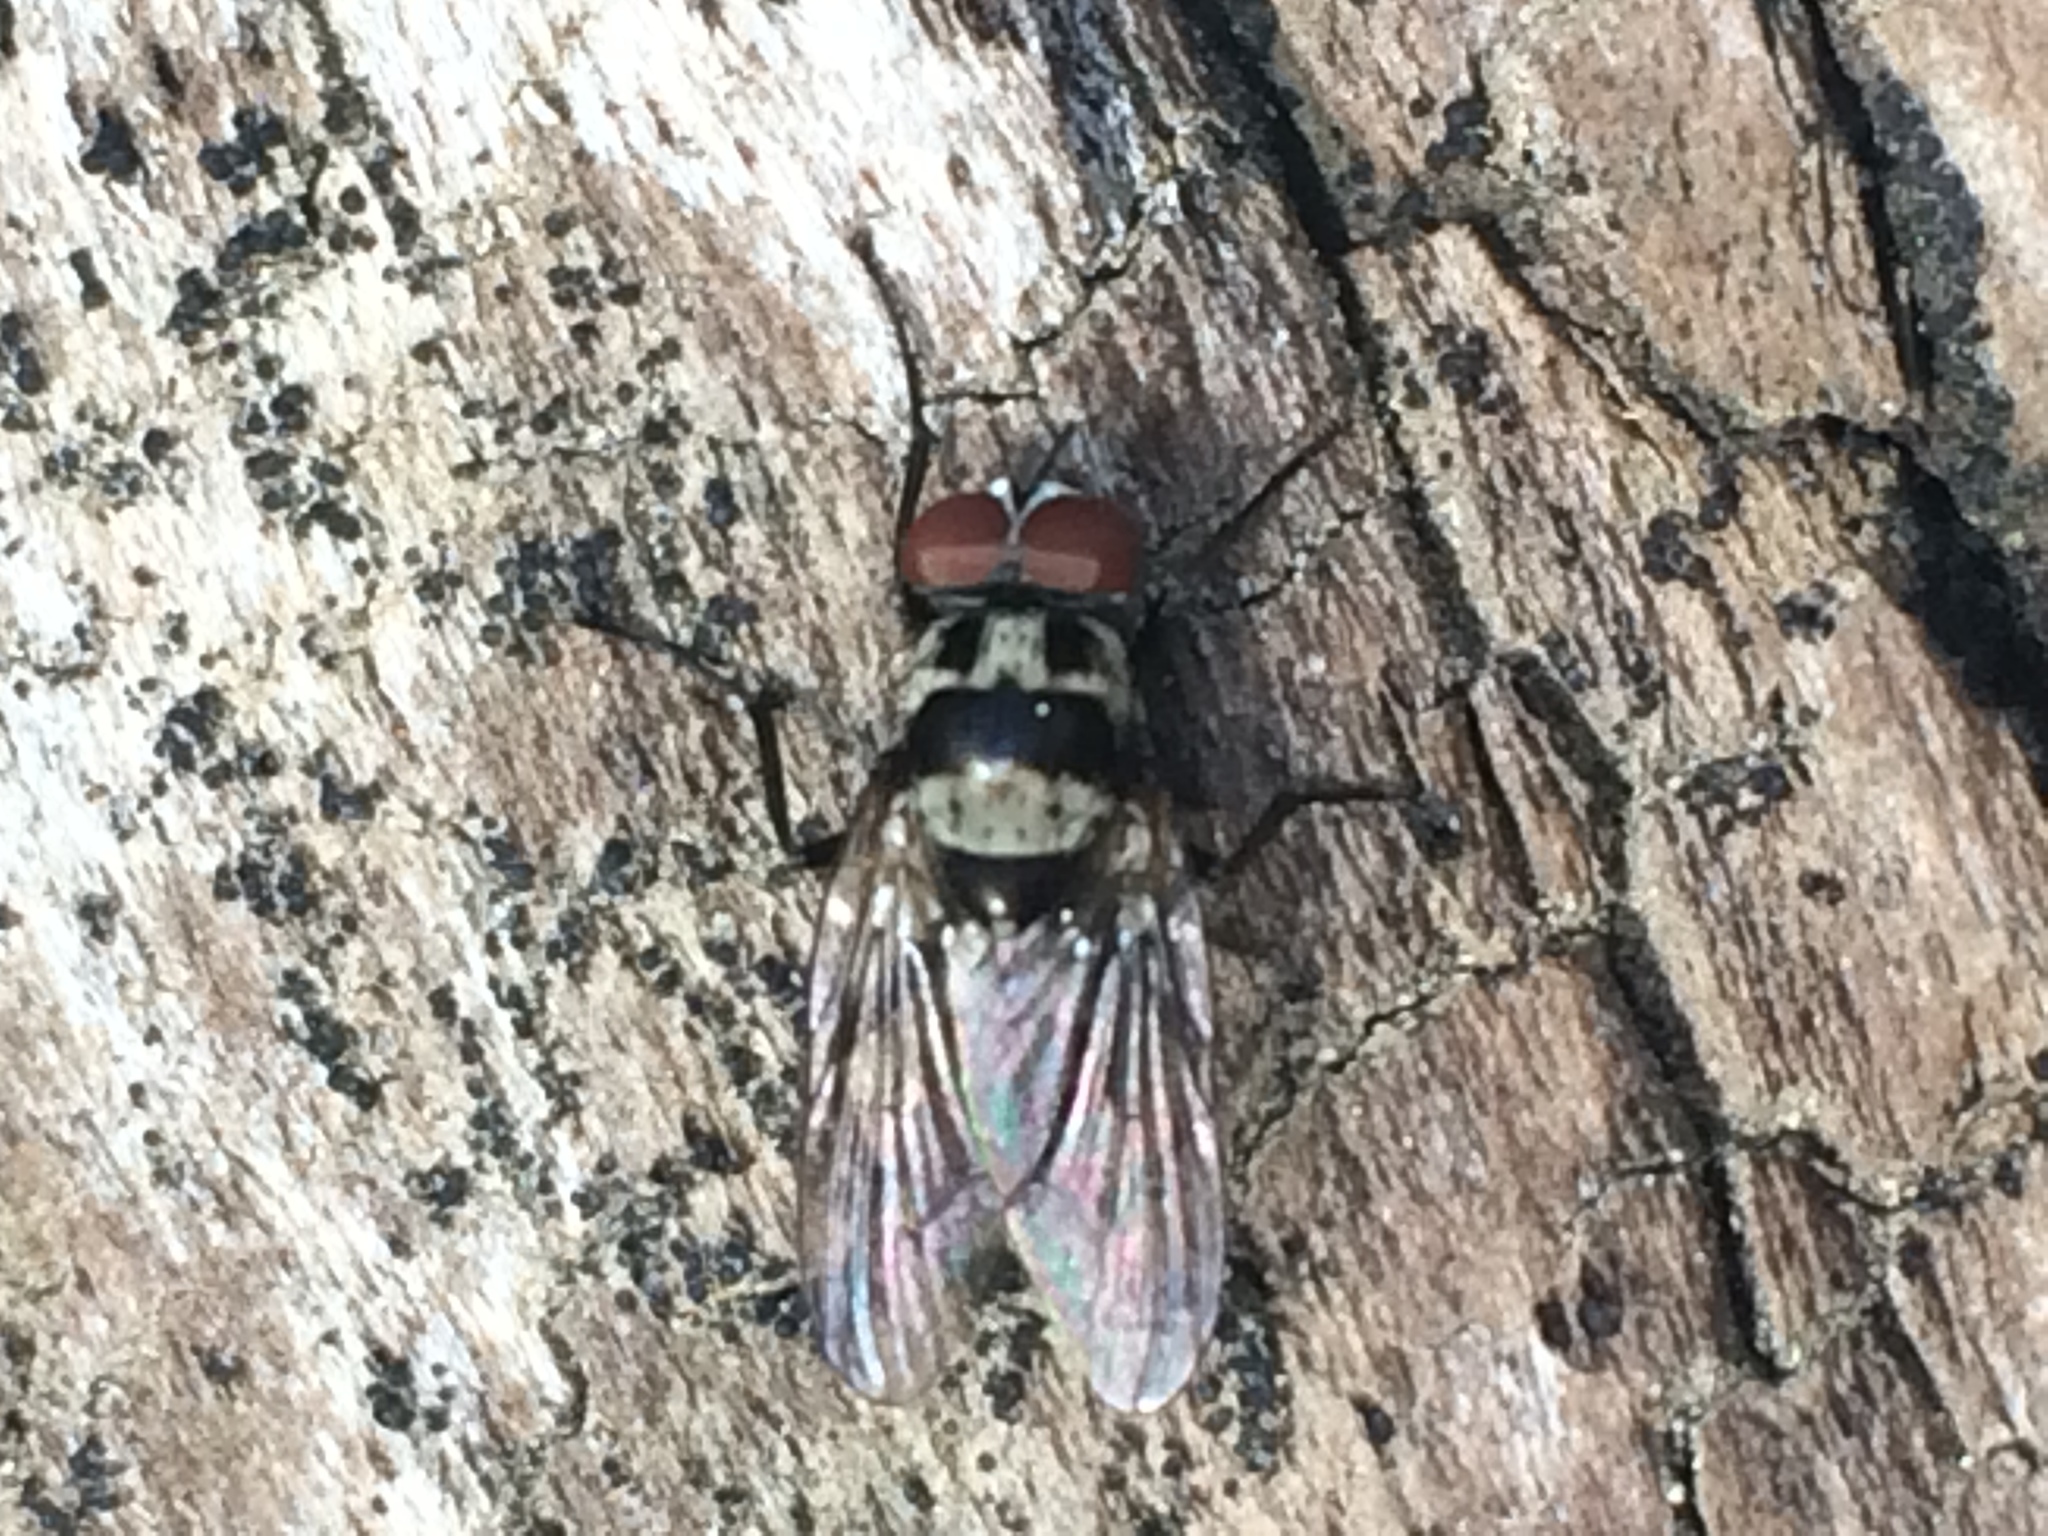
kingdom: Animalia
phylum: Arthropoda
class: Insecta
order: Diptera
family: Anthomyiidae
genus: Anthomyia
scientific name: Anthomyia oculifera
